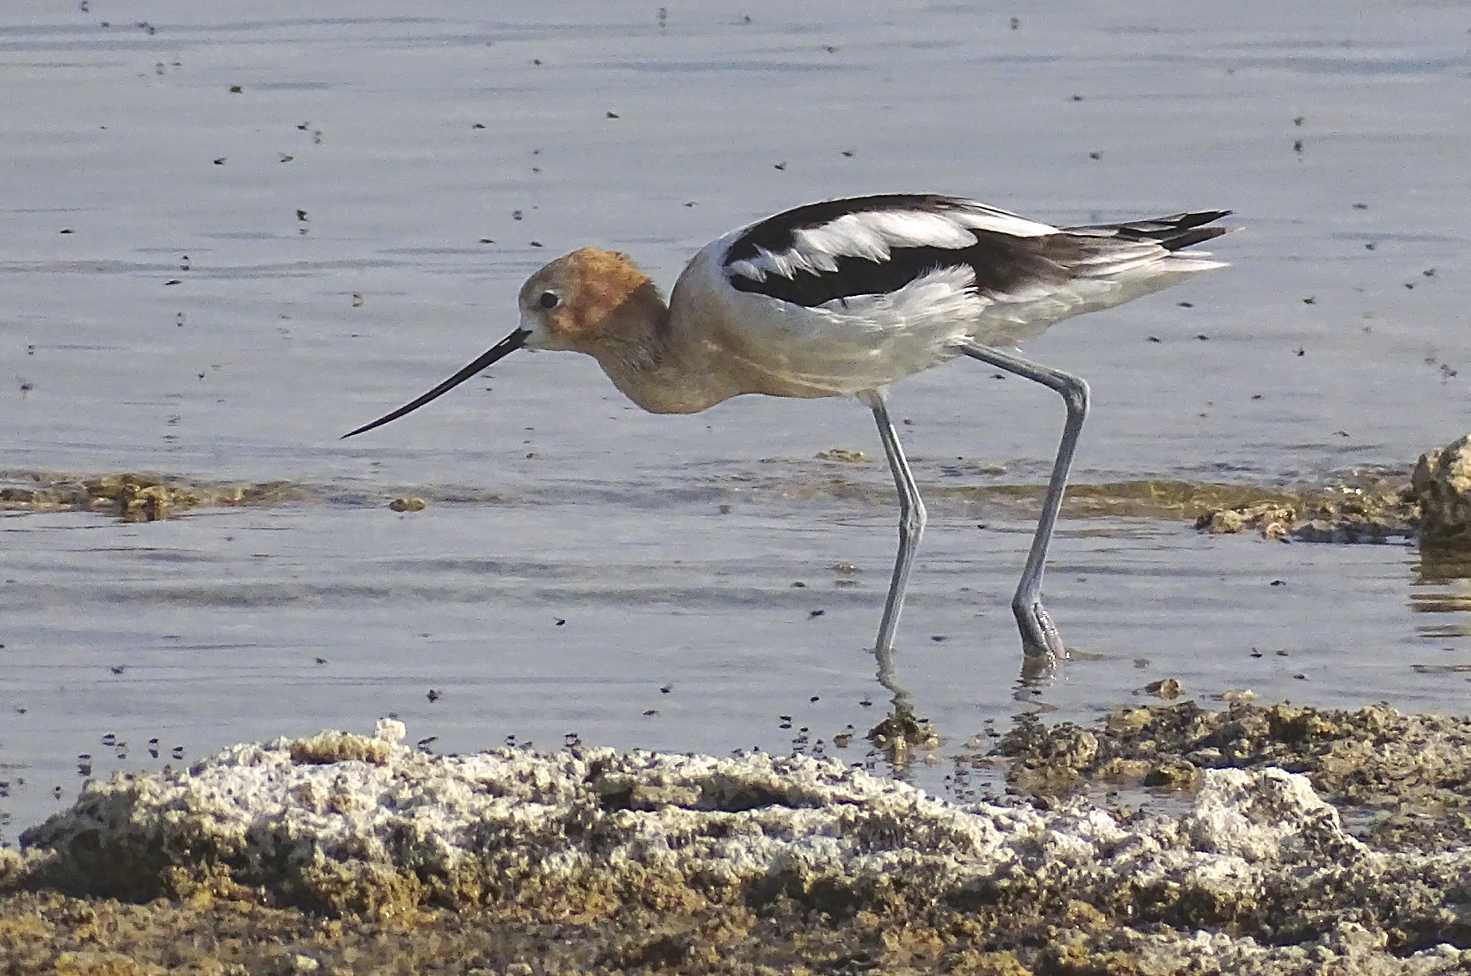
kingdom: Animalia
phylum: Chordata
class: Aves
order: Charadriiformes
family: Recurvirostridae
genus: Recurvirostra
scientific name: Recurvirostra americana
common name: American avocet
